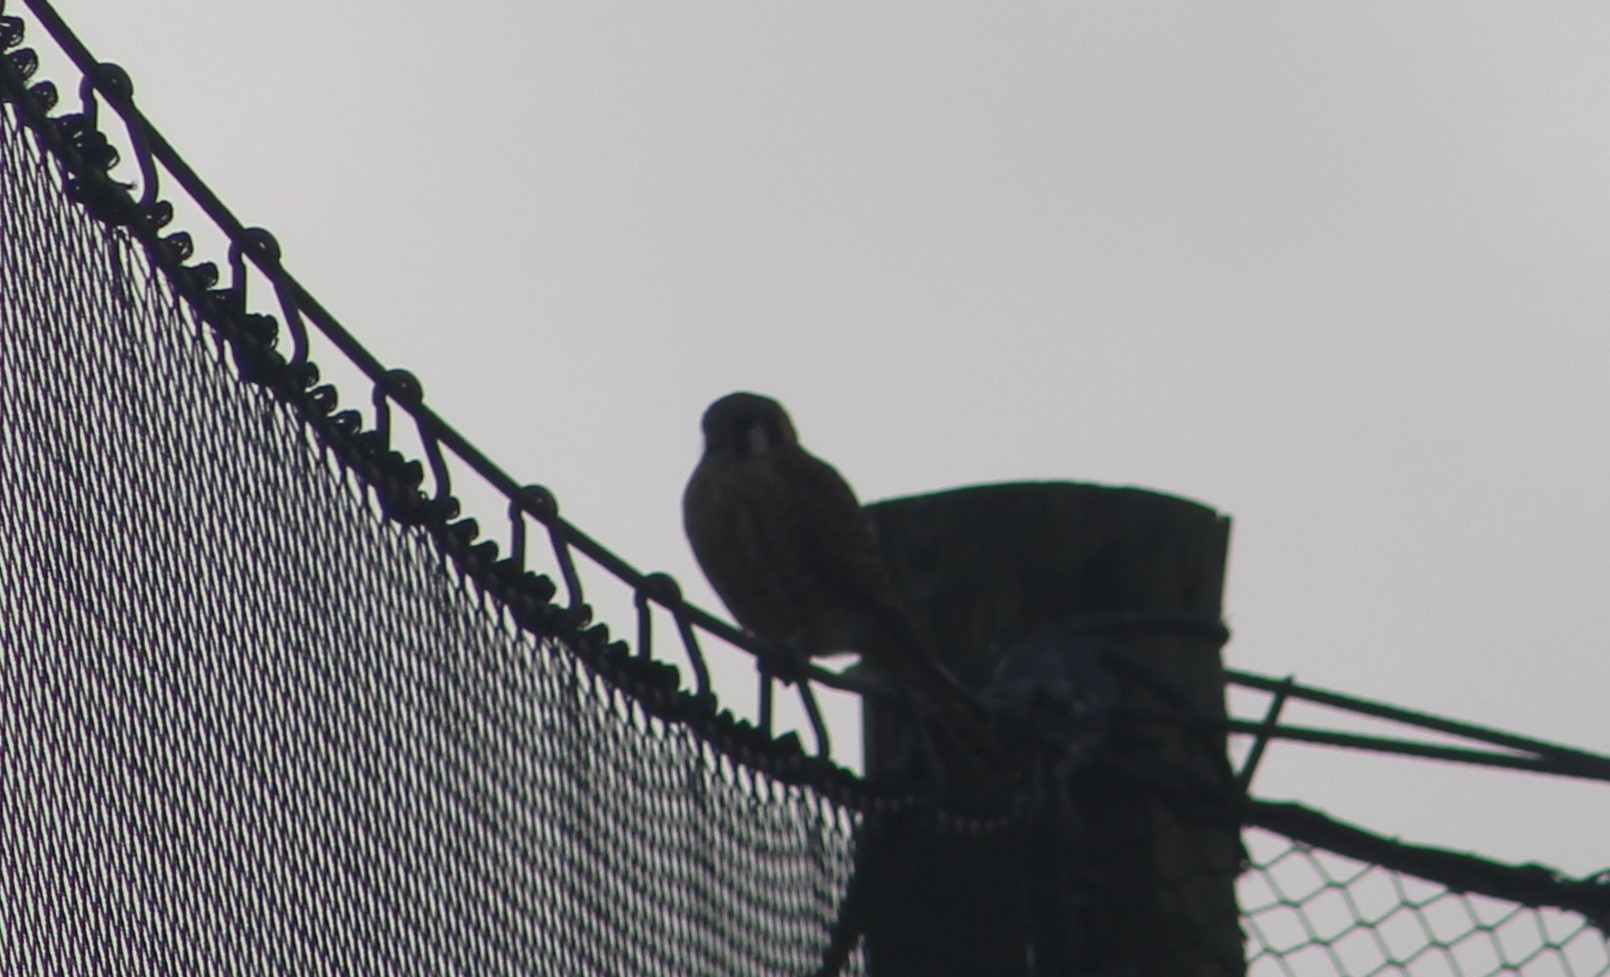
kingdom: Animalia
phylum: Chordata
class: Aves
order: Falconiformes
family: Falconidae
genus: Falco
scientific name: Falco sparverius
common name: American kestrel
